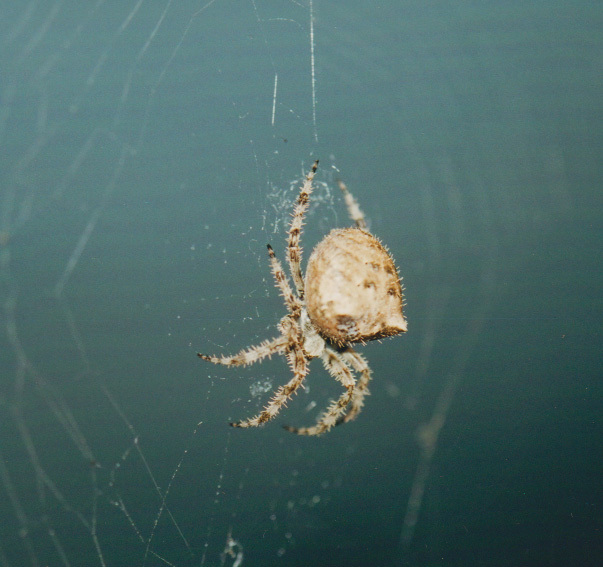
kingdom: Animalia
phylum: Arthropoda
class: Arachnida
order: Araneae
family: Araneidae
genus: Araneus
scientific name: Araneus gemmoides
